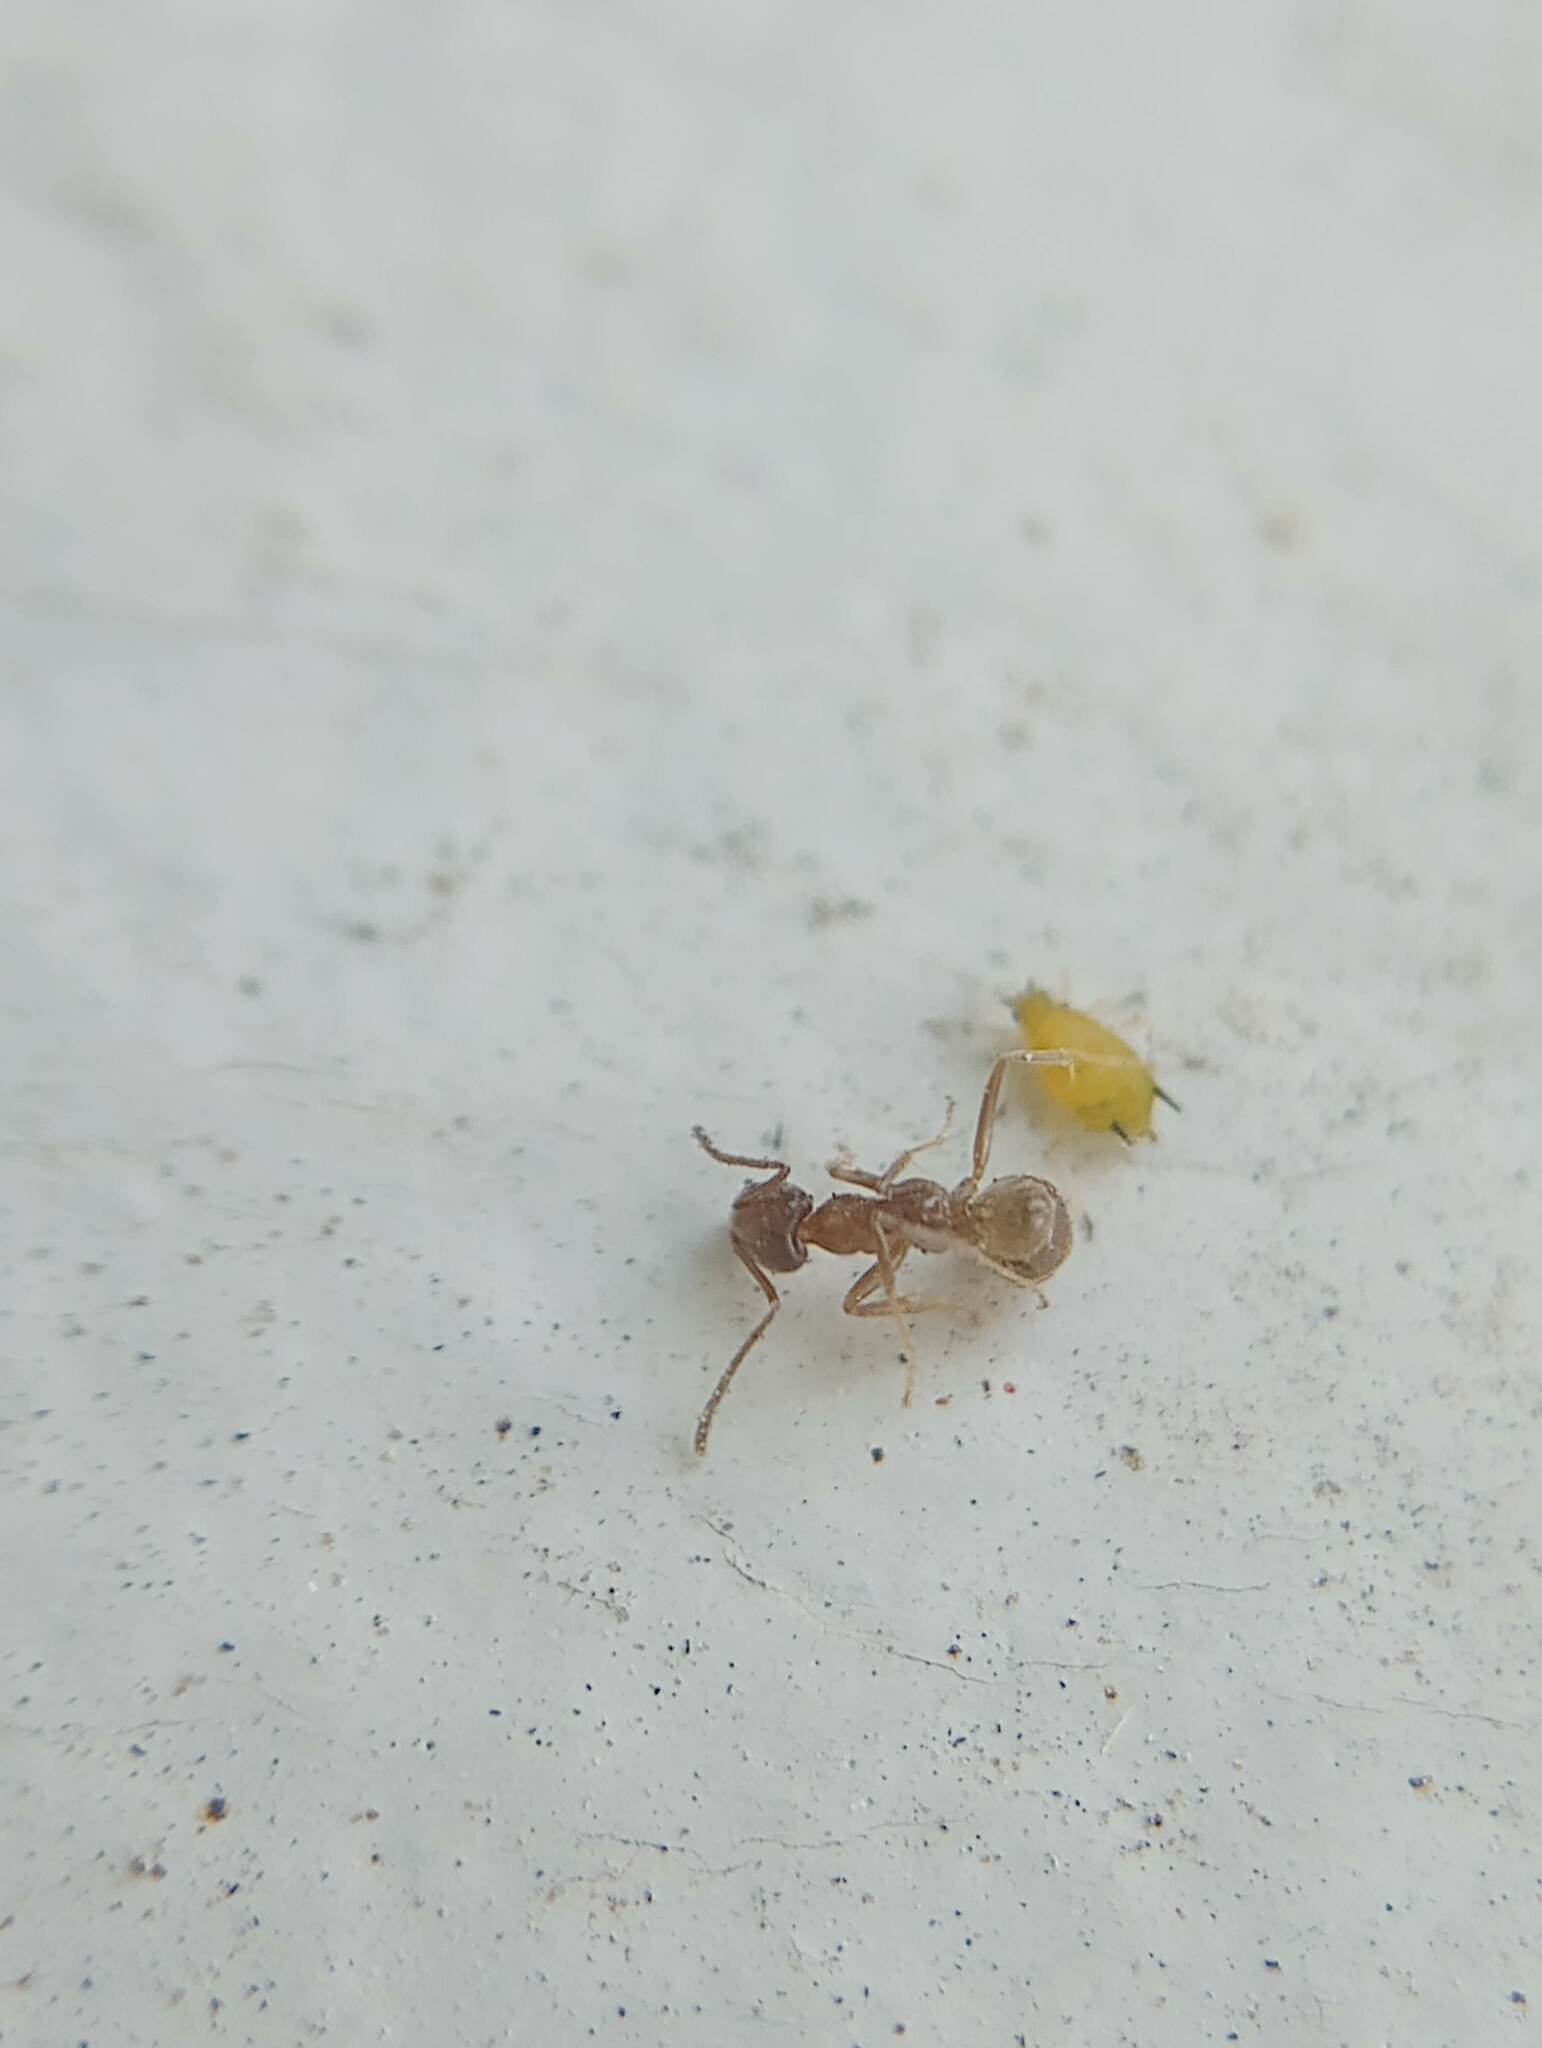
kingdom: Animalia
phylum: Arthropoda
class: Insecta
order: Hymenoptera
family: Formicidae
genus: Linepithema
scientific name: Linepithema humile
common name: Argentine ant
